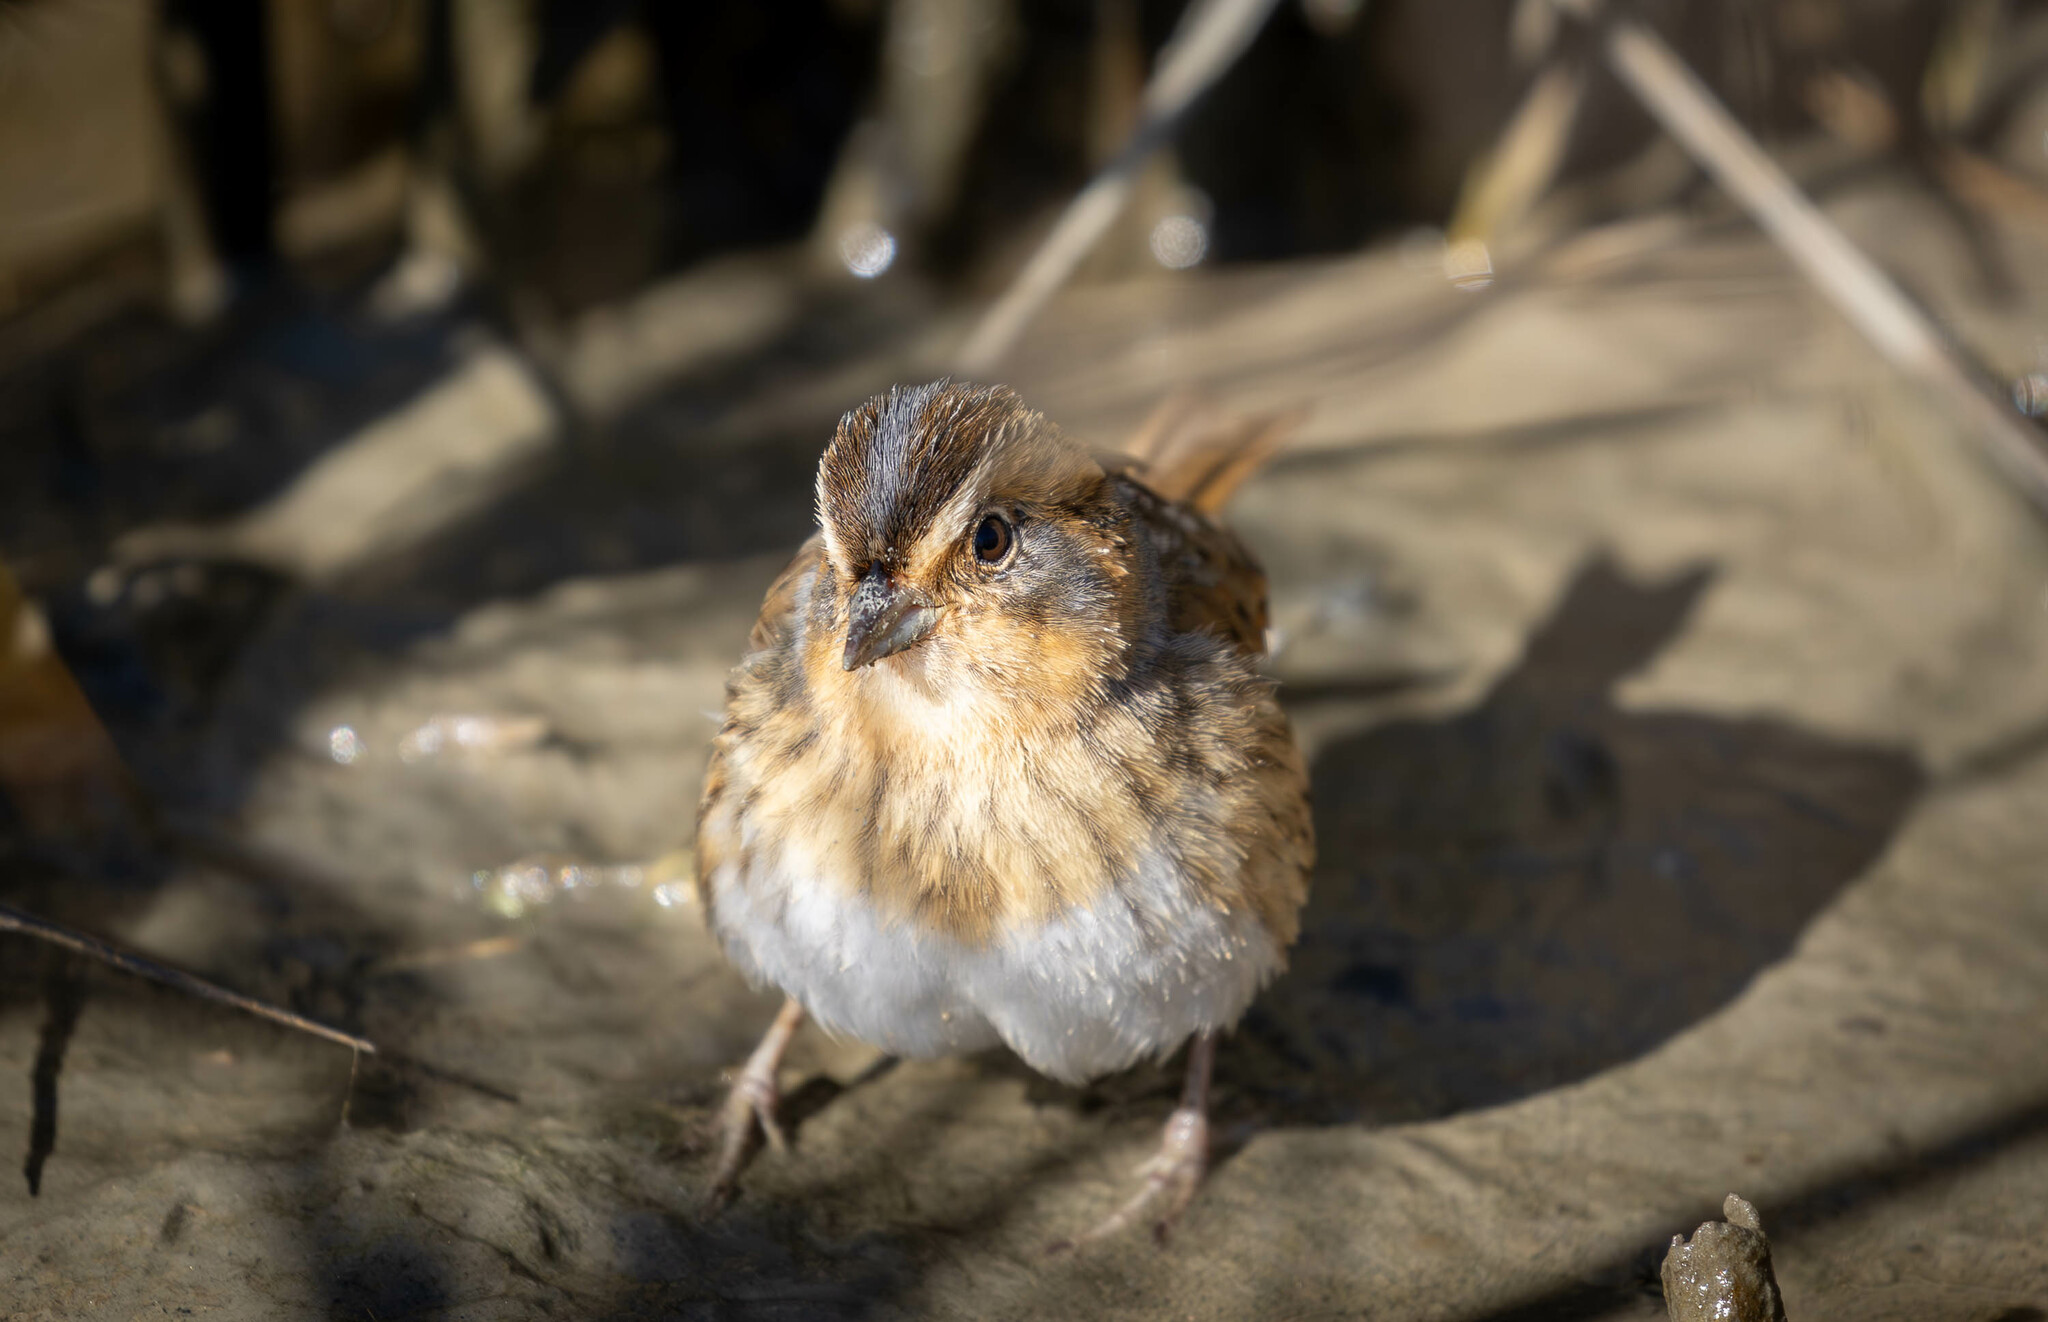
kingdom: Animalia
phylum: Chordata
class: Aves
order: Passeriformes
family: Passerellidae
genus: Ammospiza
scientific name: Ammospiza nelsoni
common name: Nelson's sparrow
